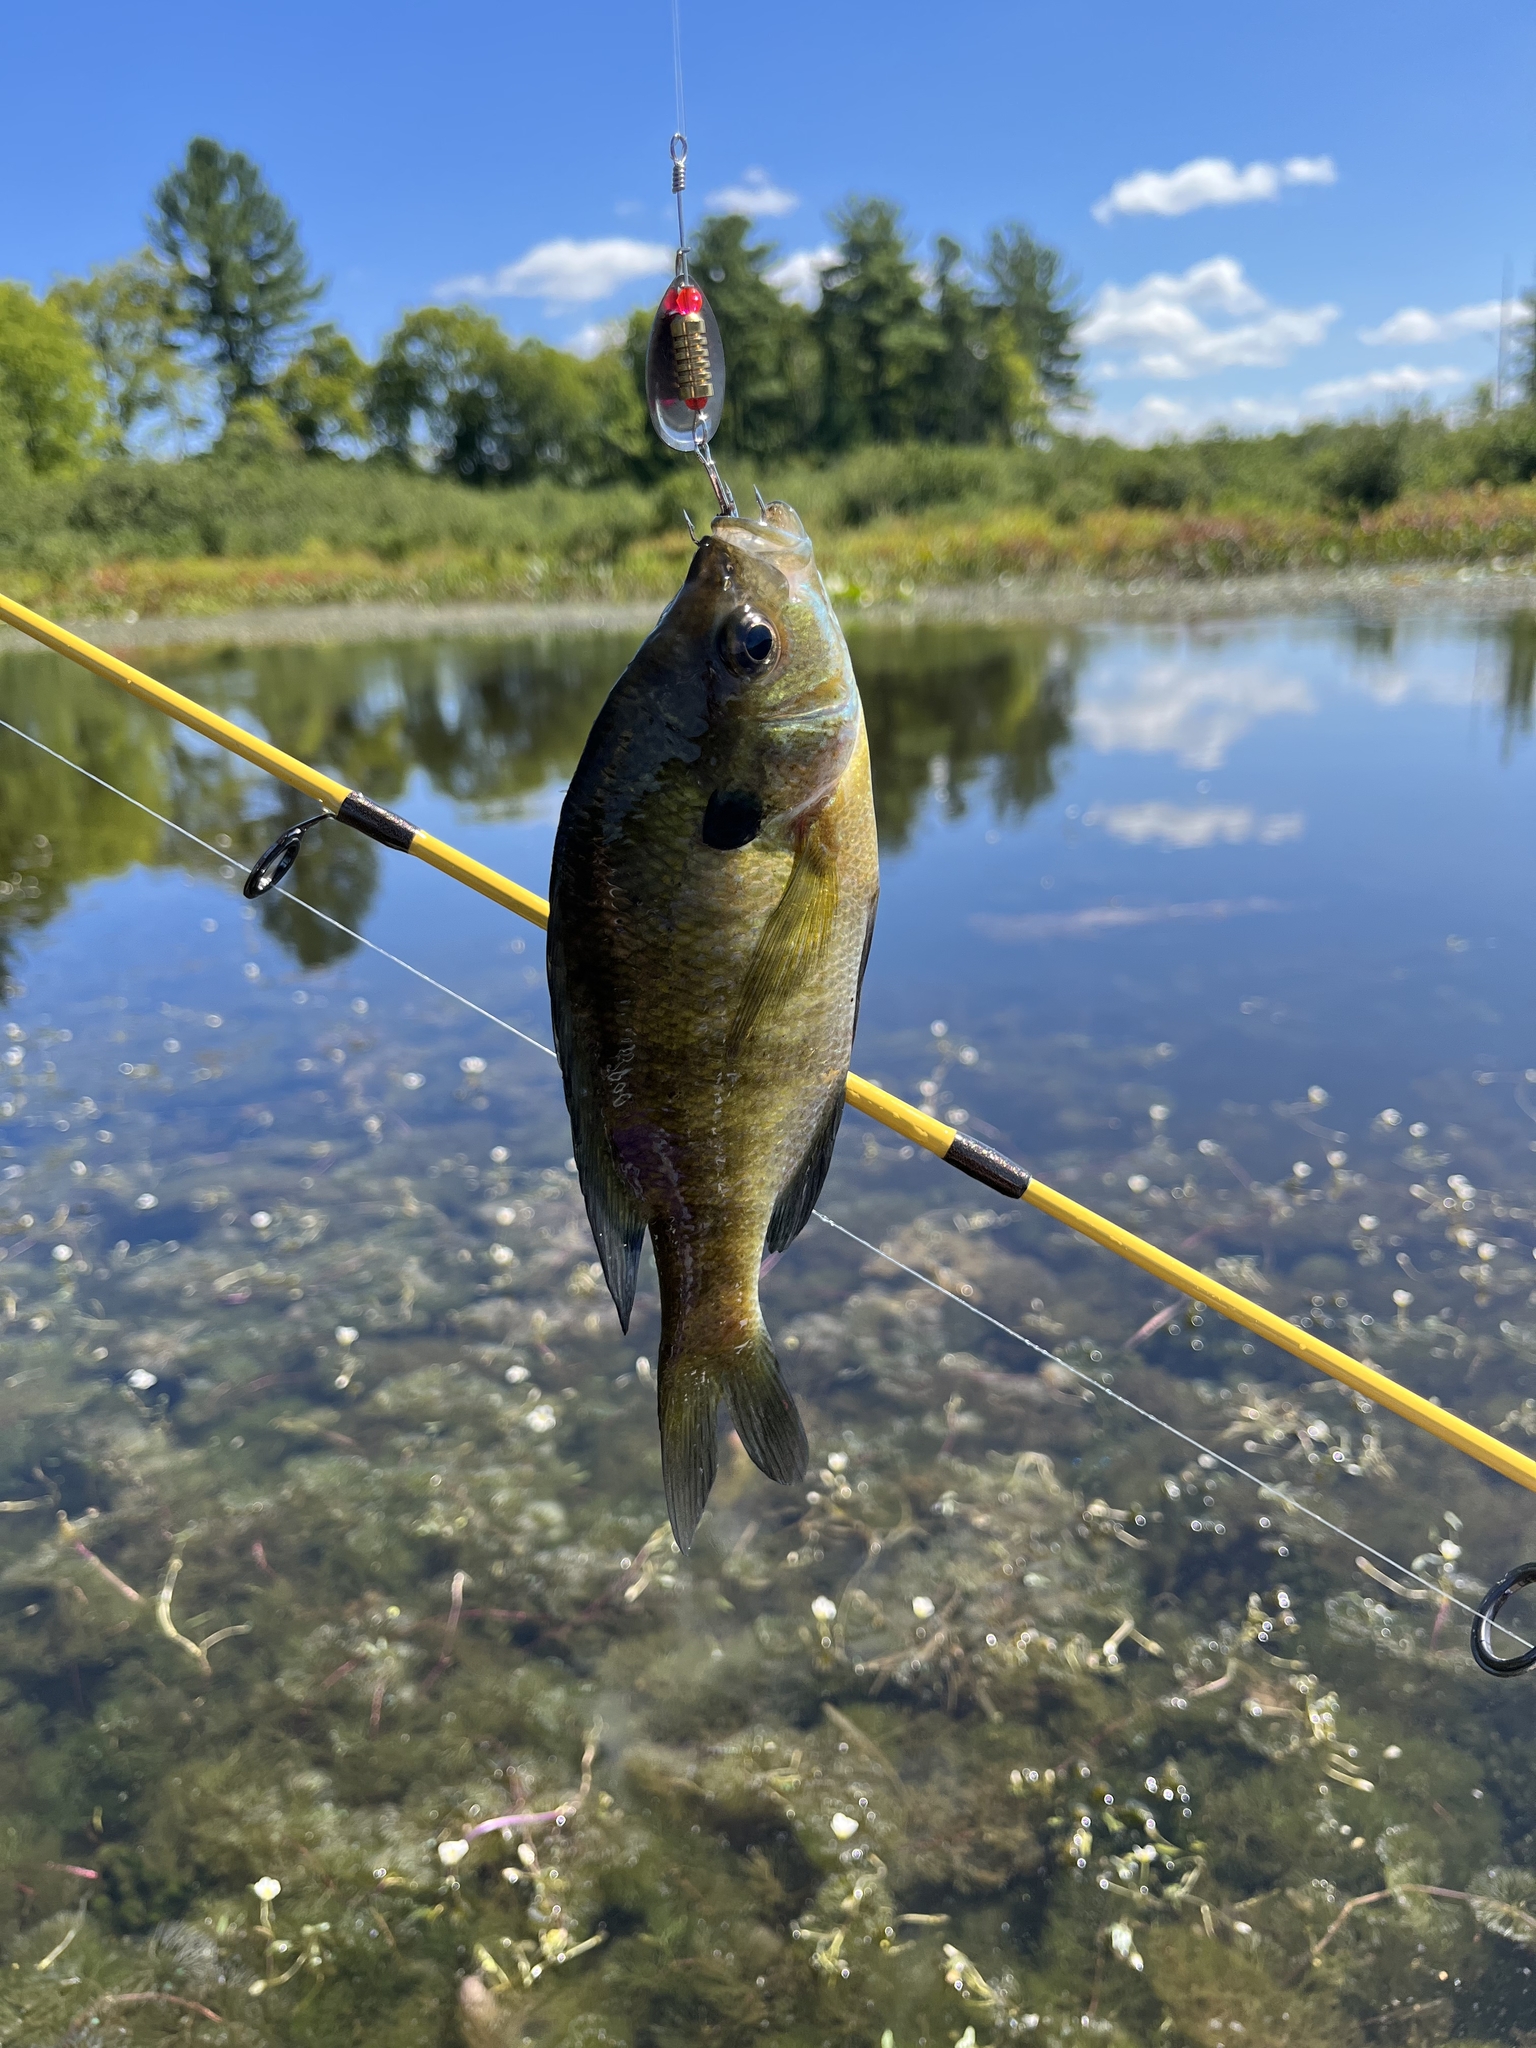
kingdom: Animalia
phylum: Chordata
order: Perciformes
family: Centrarchidae
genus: Lepomis
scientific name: Lepomis macrochirus
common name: Bluegill
